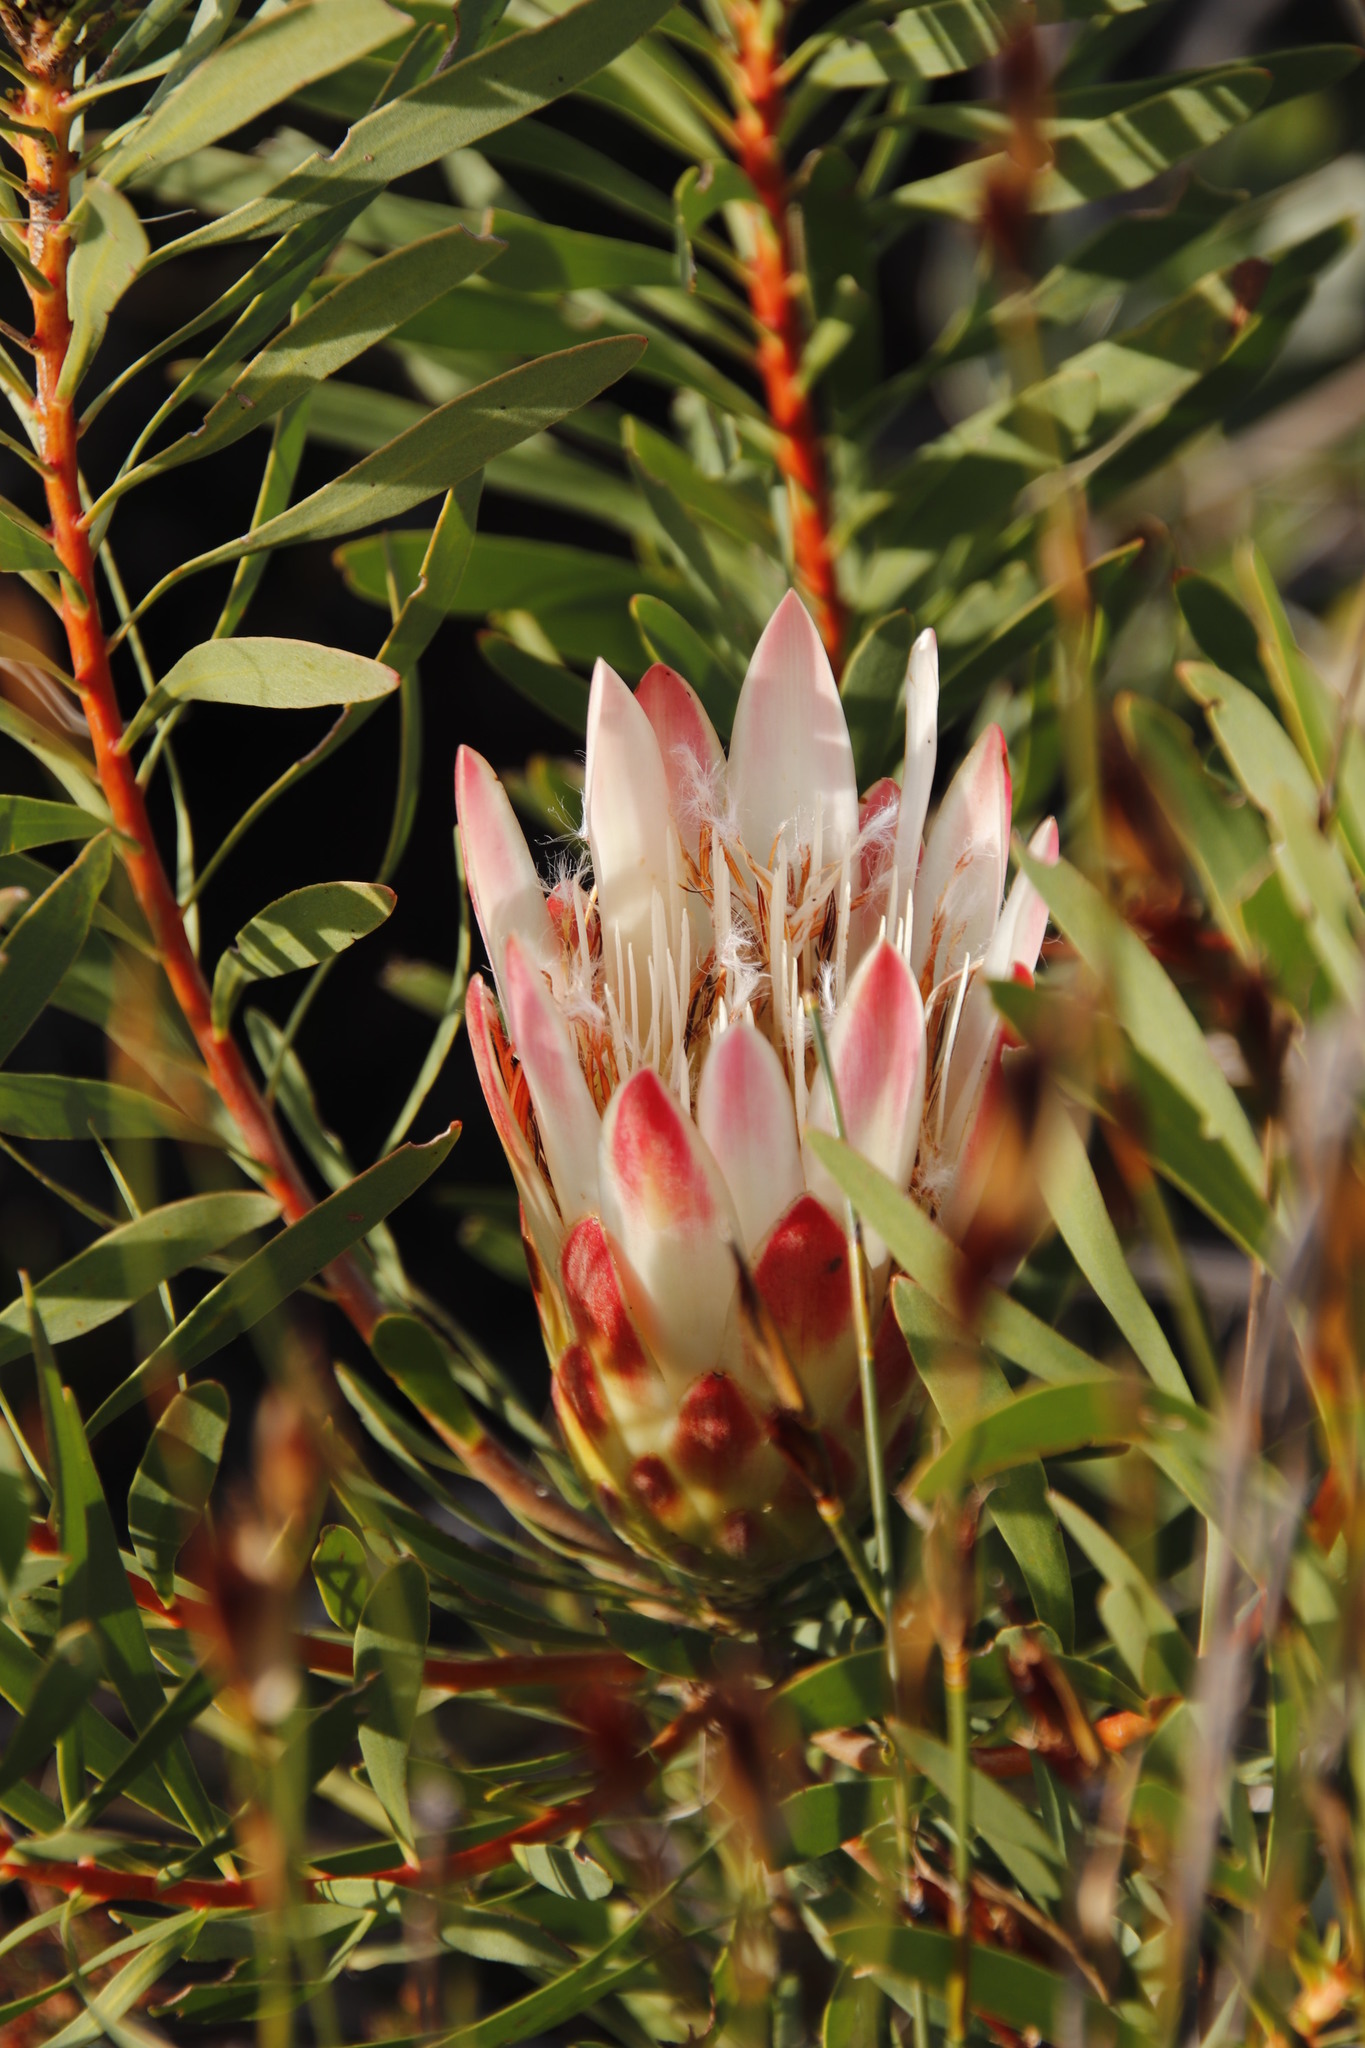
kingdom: Plantae
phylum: Tracheophyta
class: Magnoliopsida
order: Proteales
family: Proteaceae
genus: Protea
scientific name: Protea repens
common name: Sugarbush
